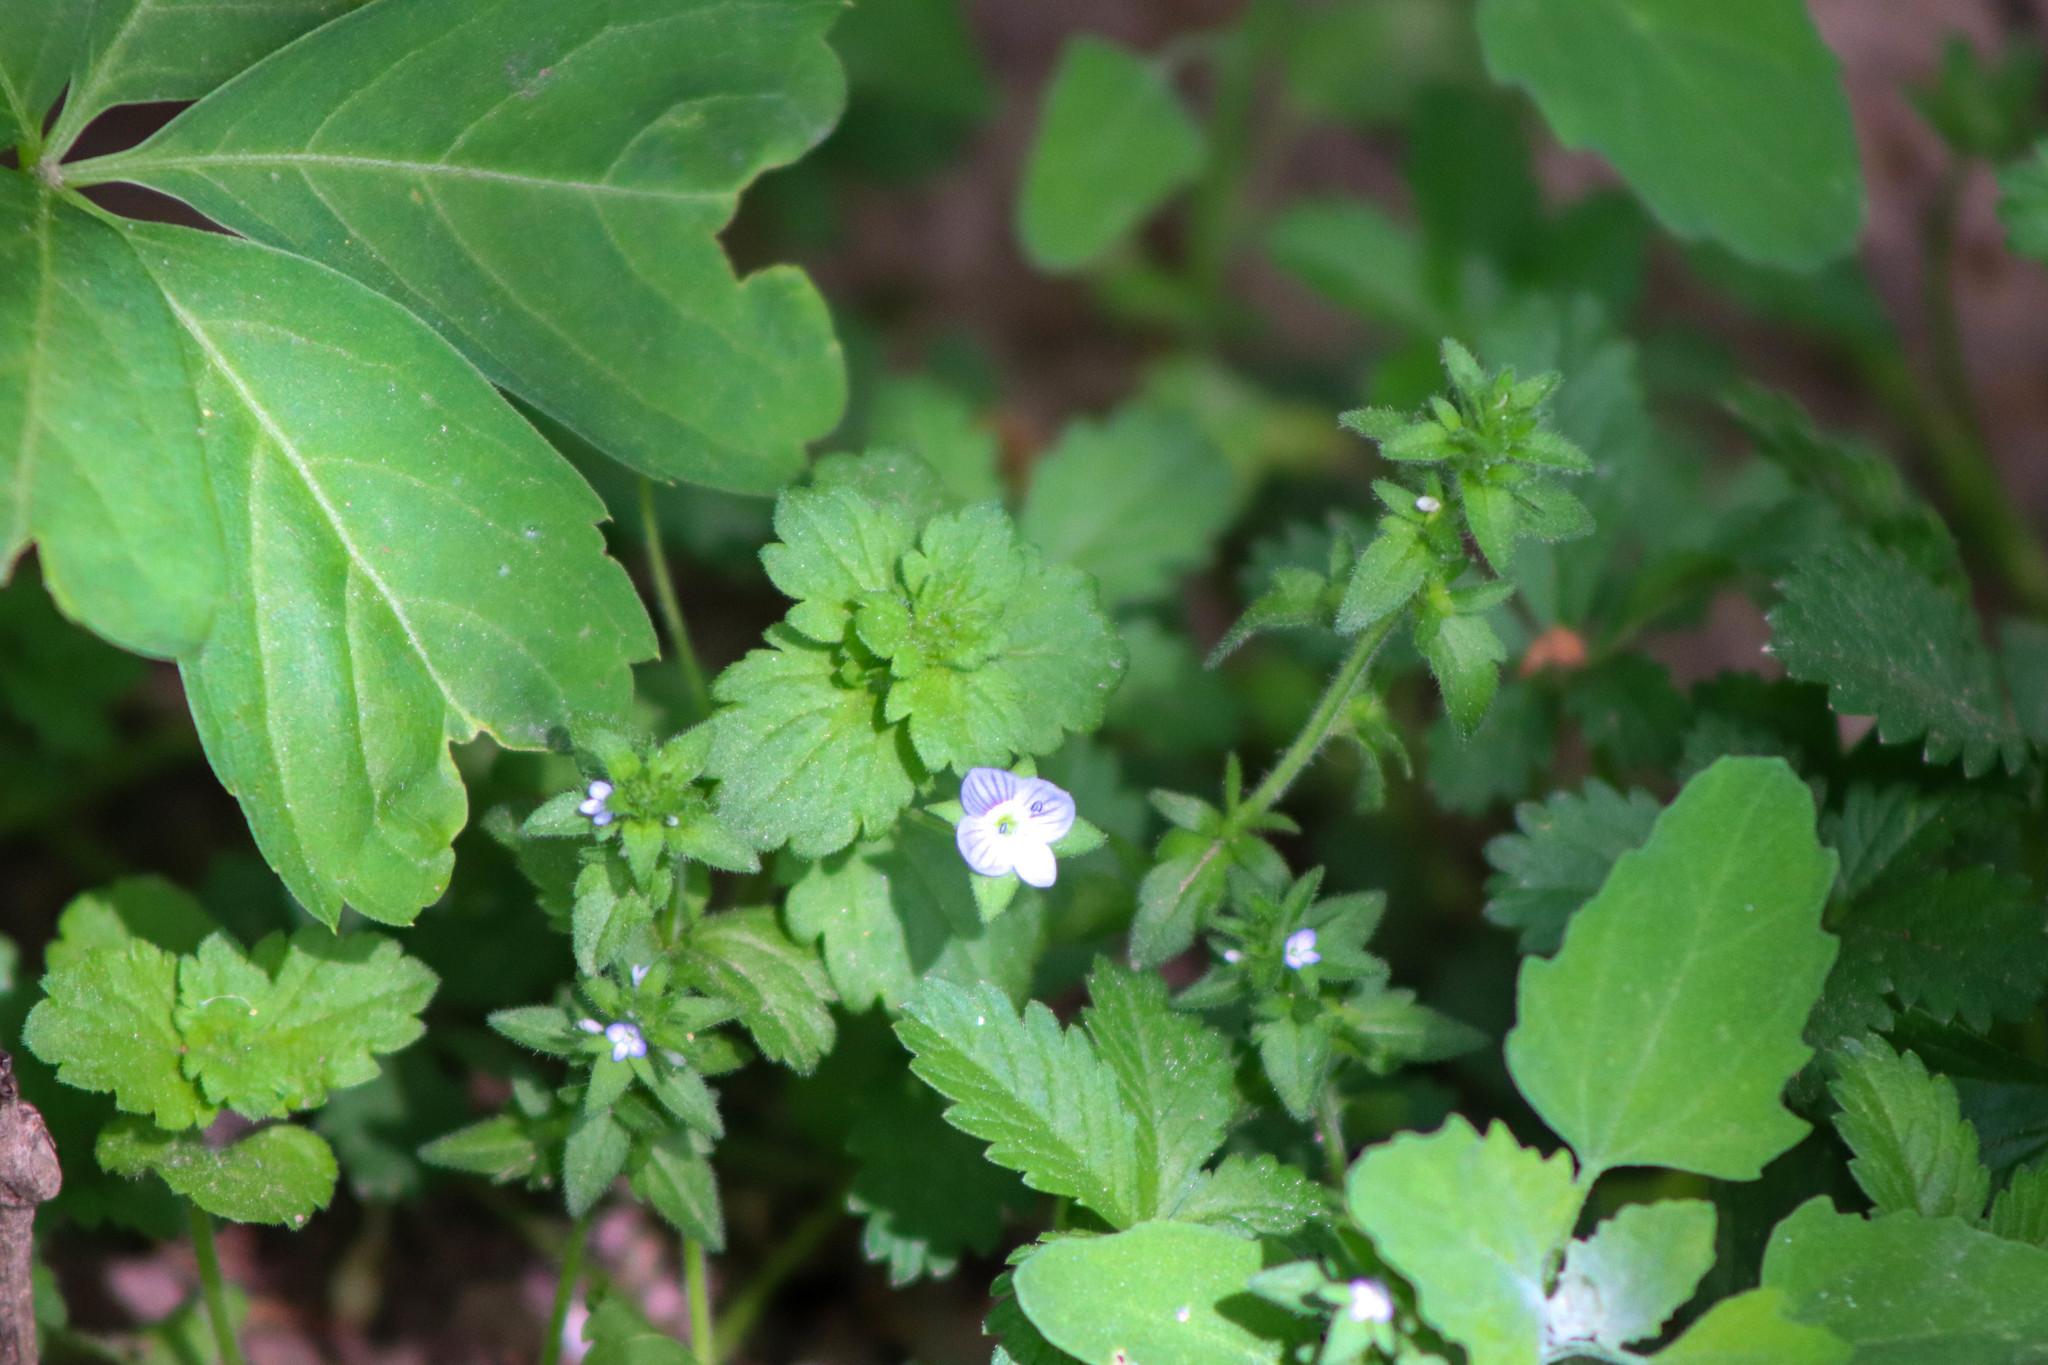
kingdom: Plantae
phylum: Tracheophyta
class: Magnoliopsida
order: Lamiales
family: Plantaginaceae
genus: Veronica
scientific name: Veronica persica
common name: Common field-speedwell
